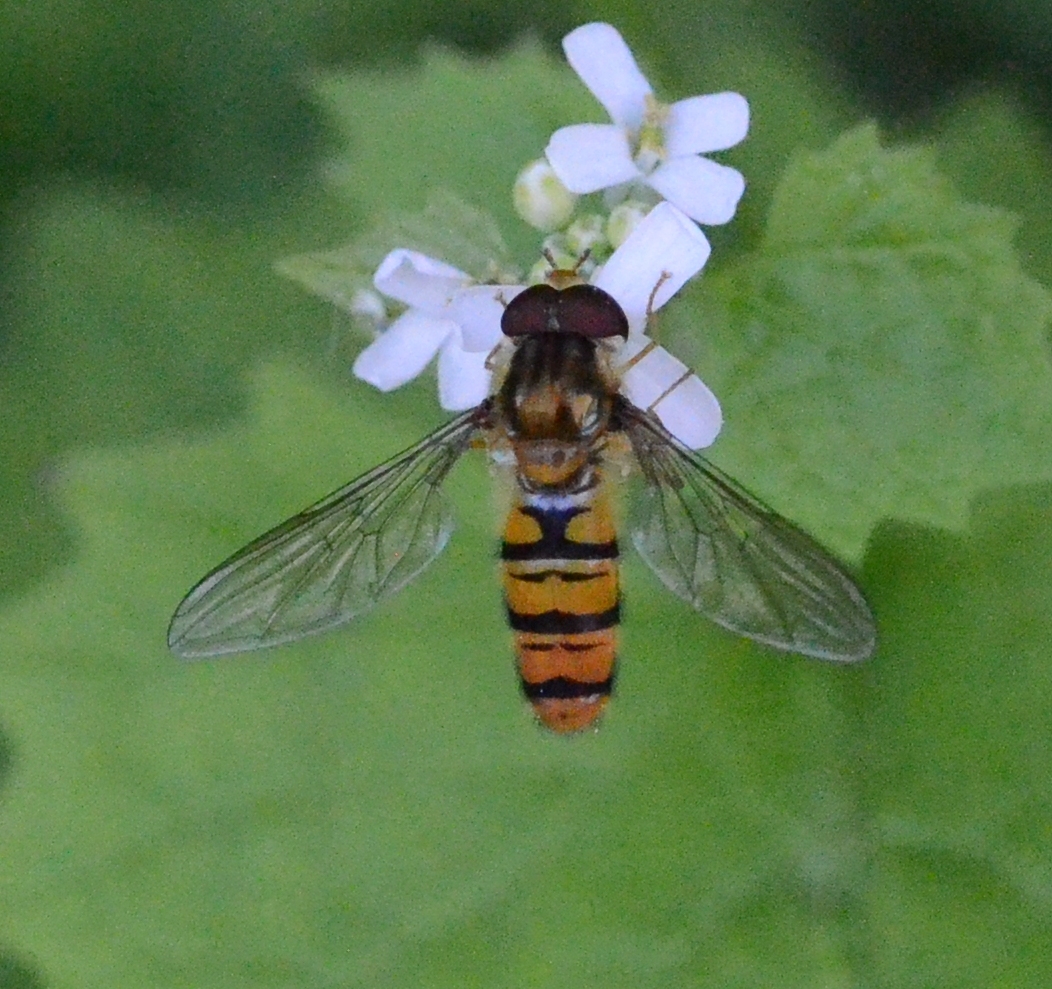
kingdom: Animalia
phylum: Arthropoda
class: Insecta
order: Diptera
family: Syrphidae
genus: Episyrphus
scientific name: Episyrphus balteatus
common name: Marmalade hoverfly
